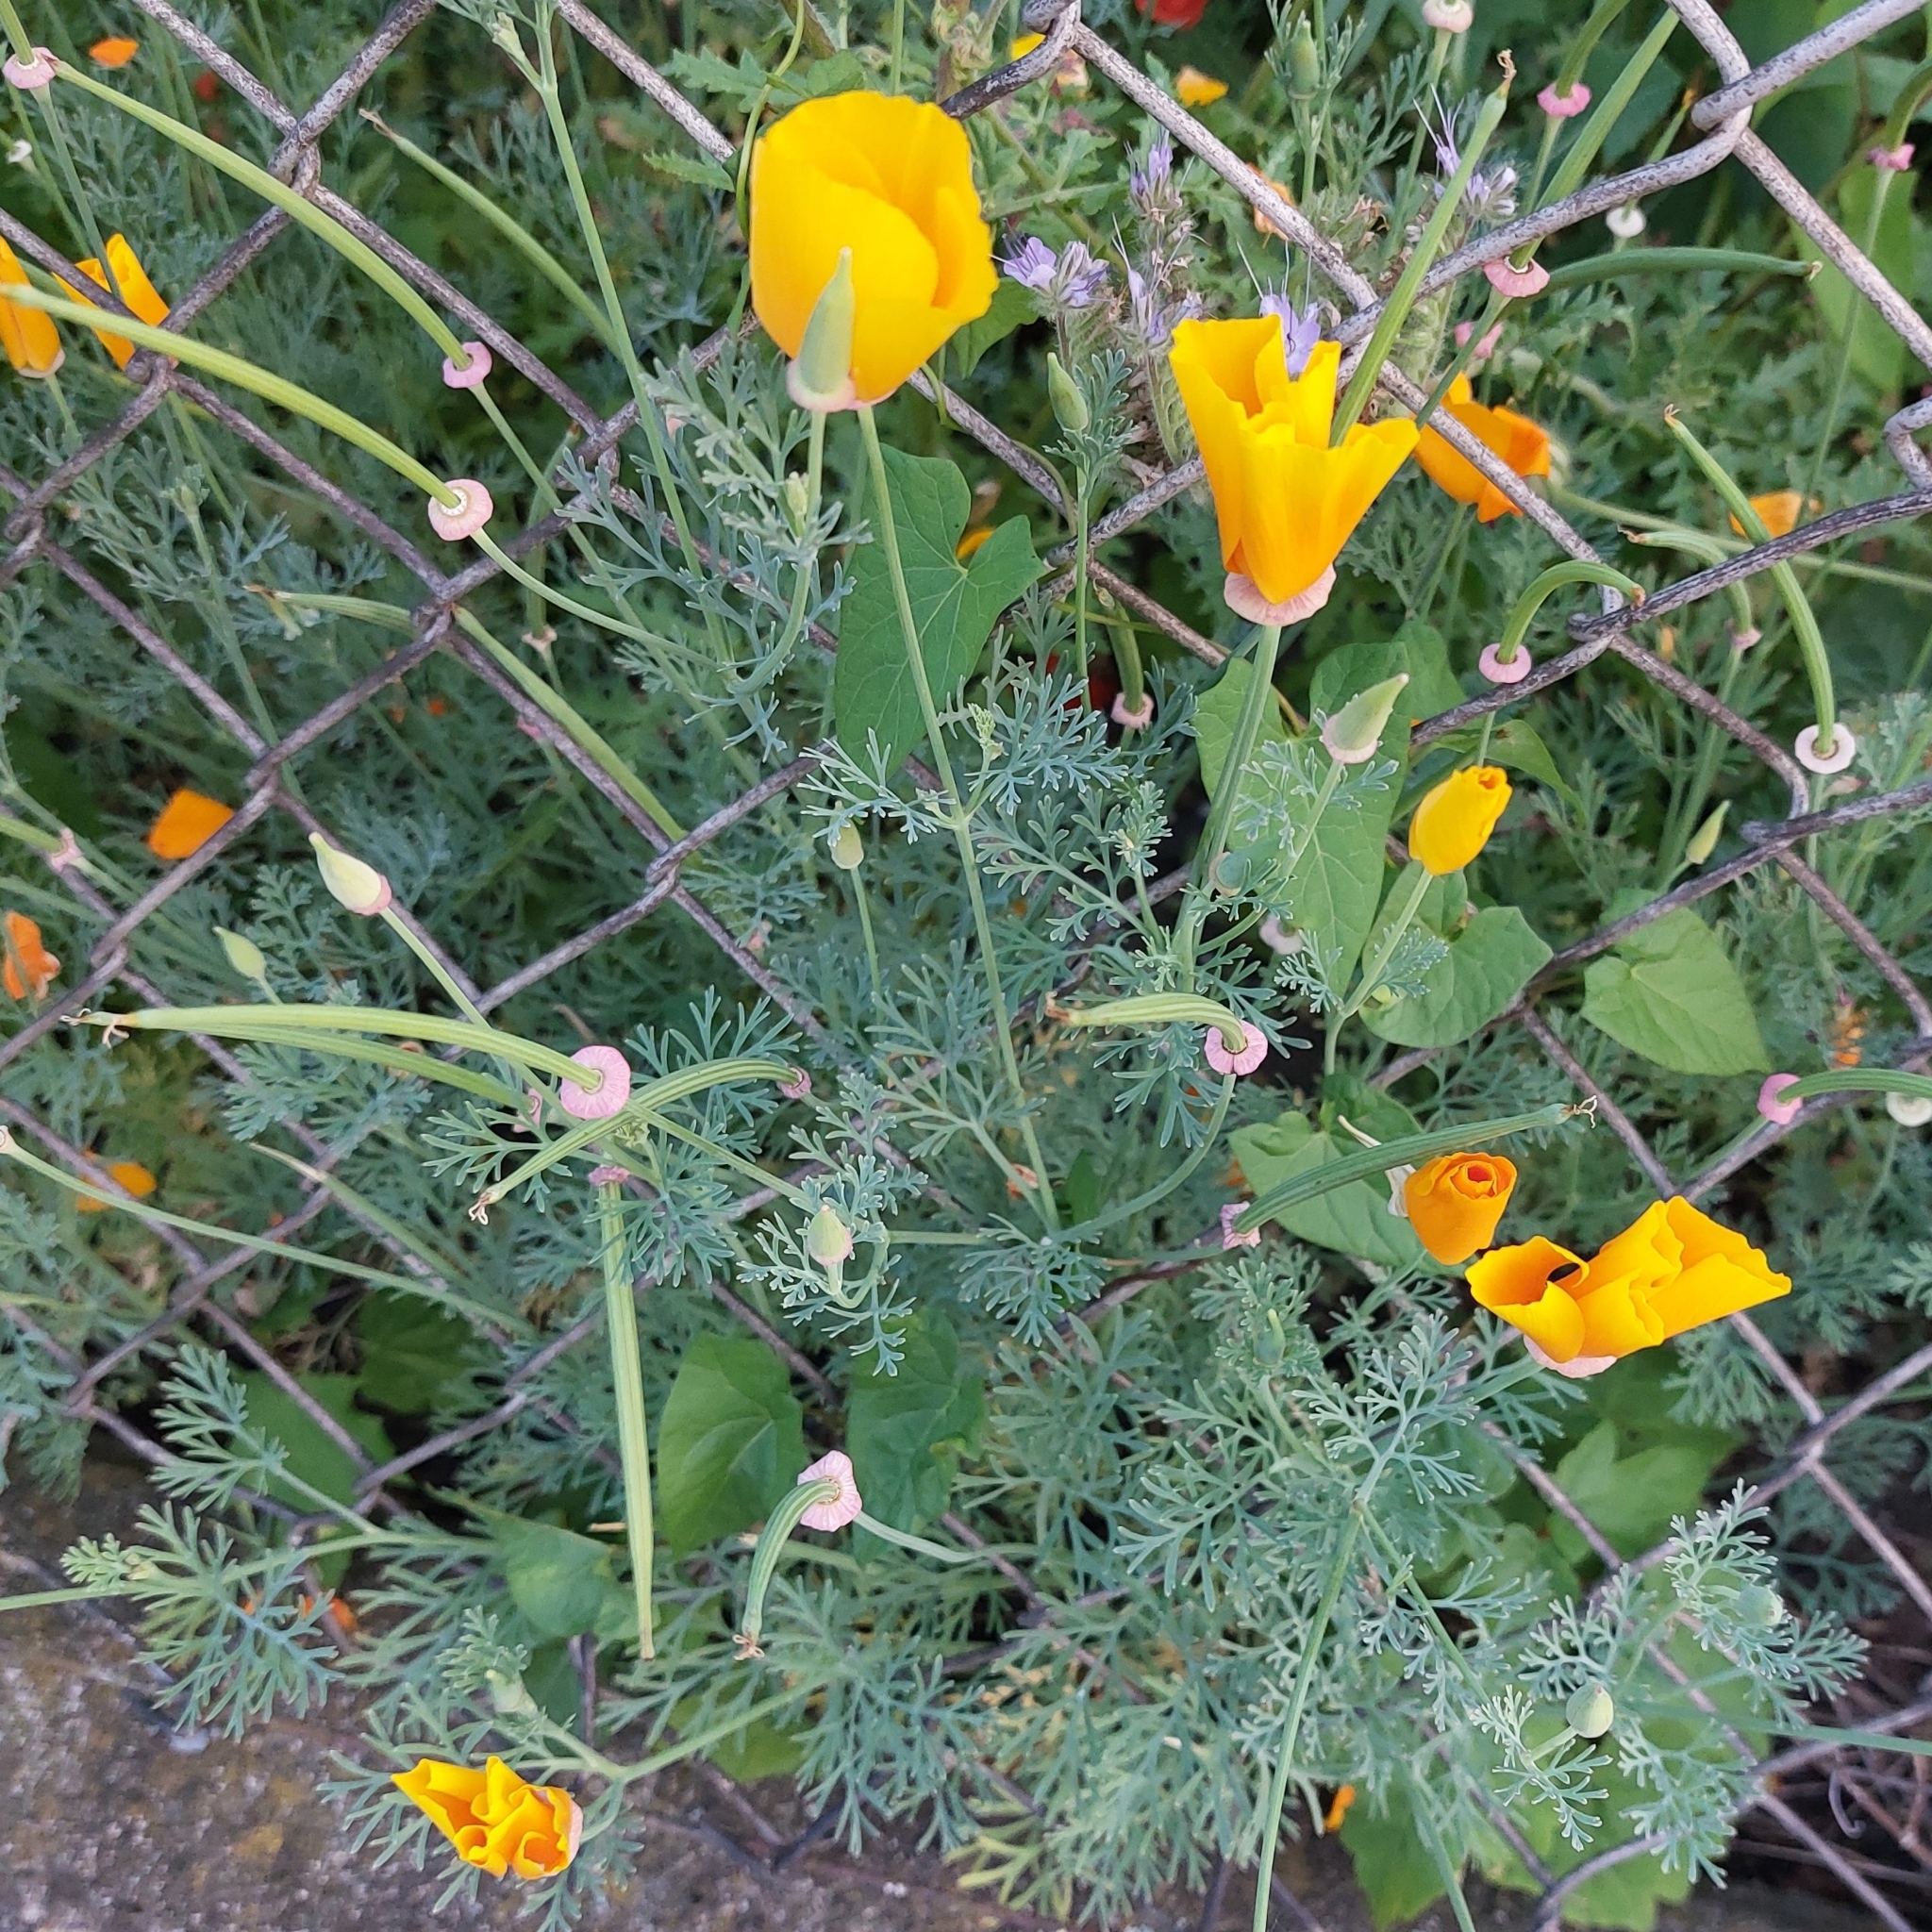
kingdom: Plantae
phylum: Tracheophyta
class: Magnoliopsida
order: Ranunculales
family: Papaveraceae
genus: Eschscholzia
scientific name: Eschscholzia californica
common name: California poppy
